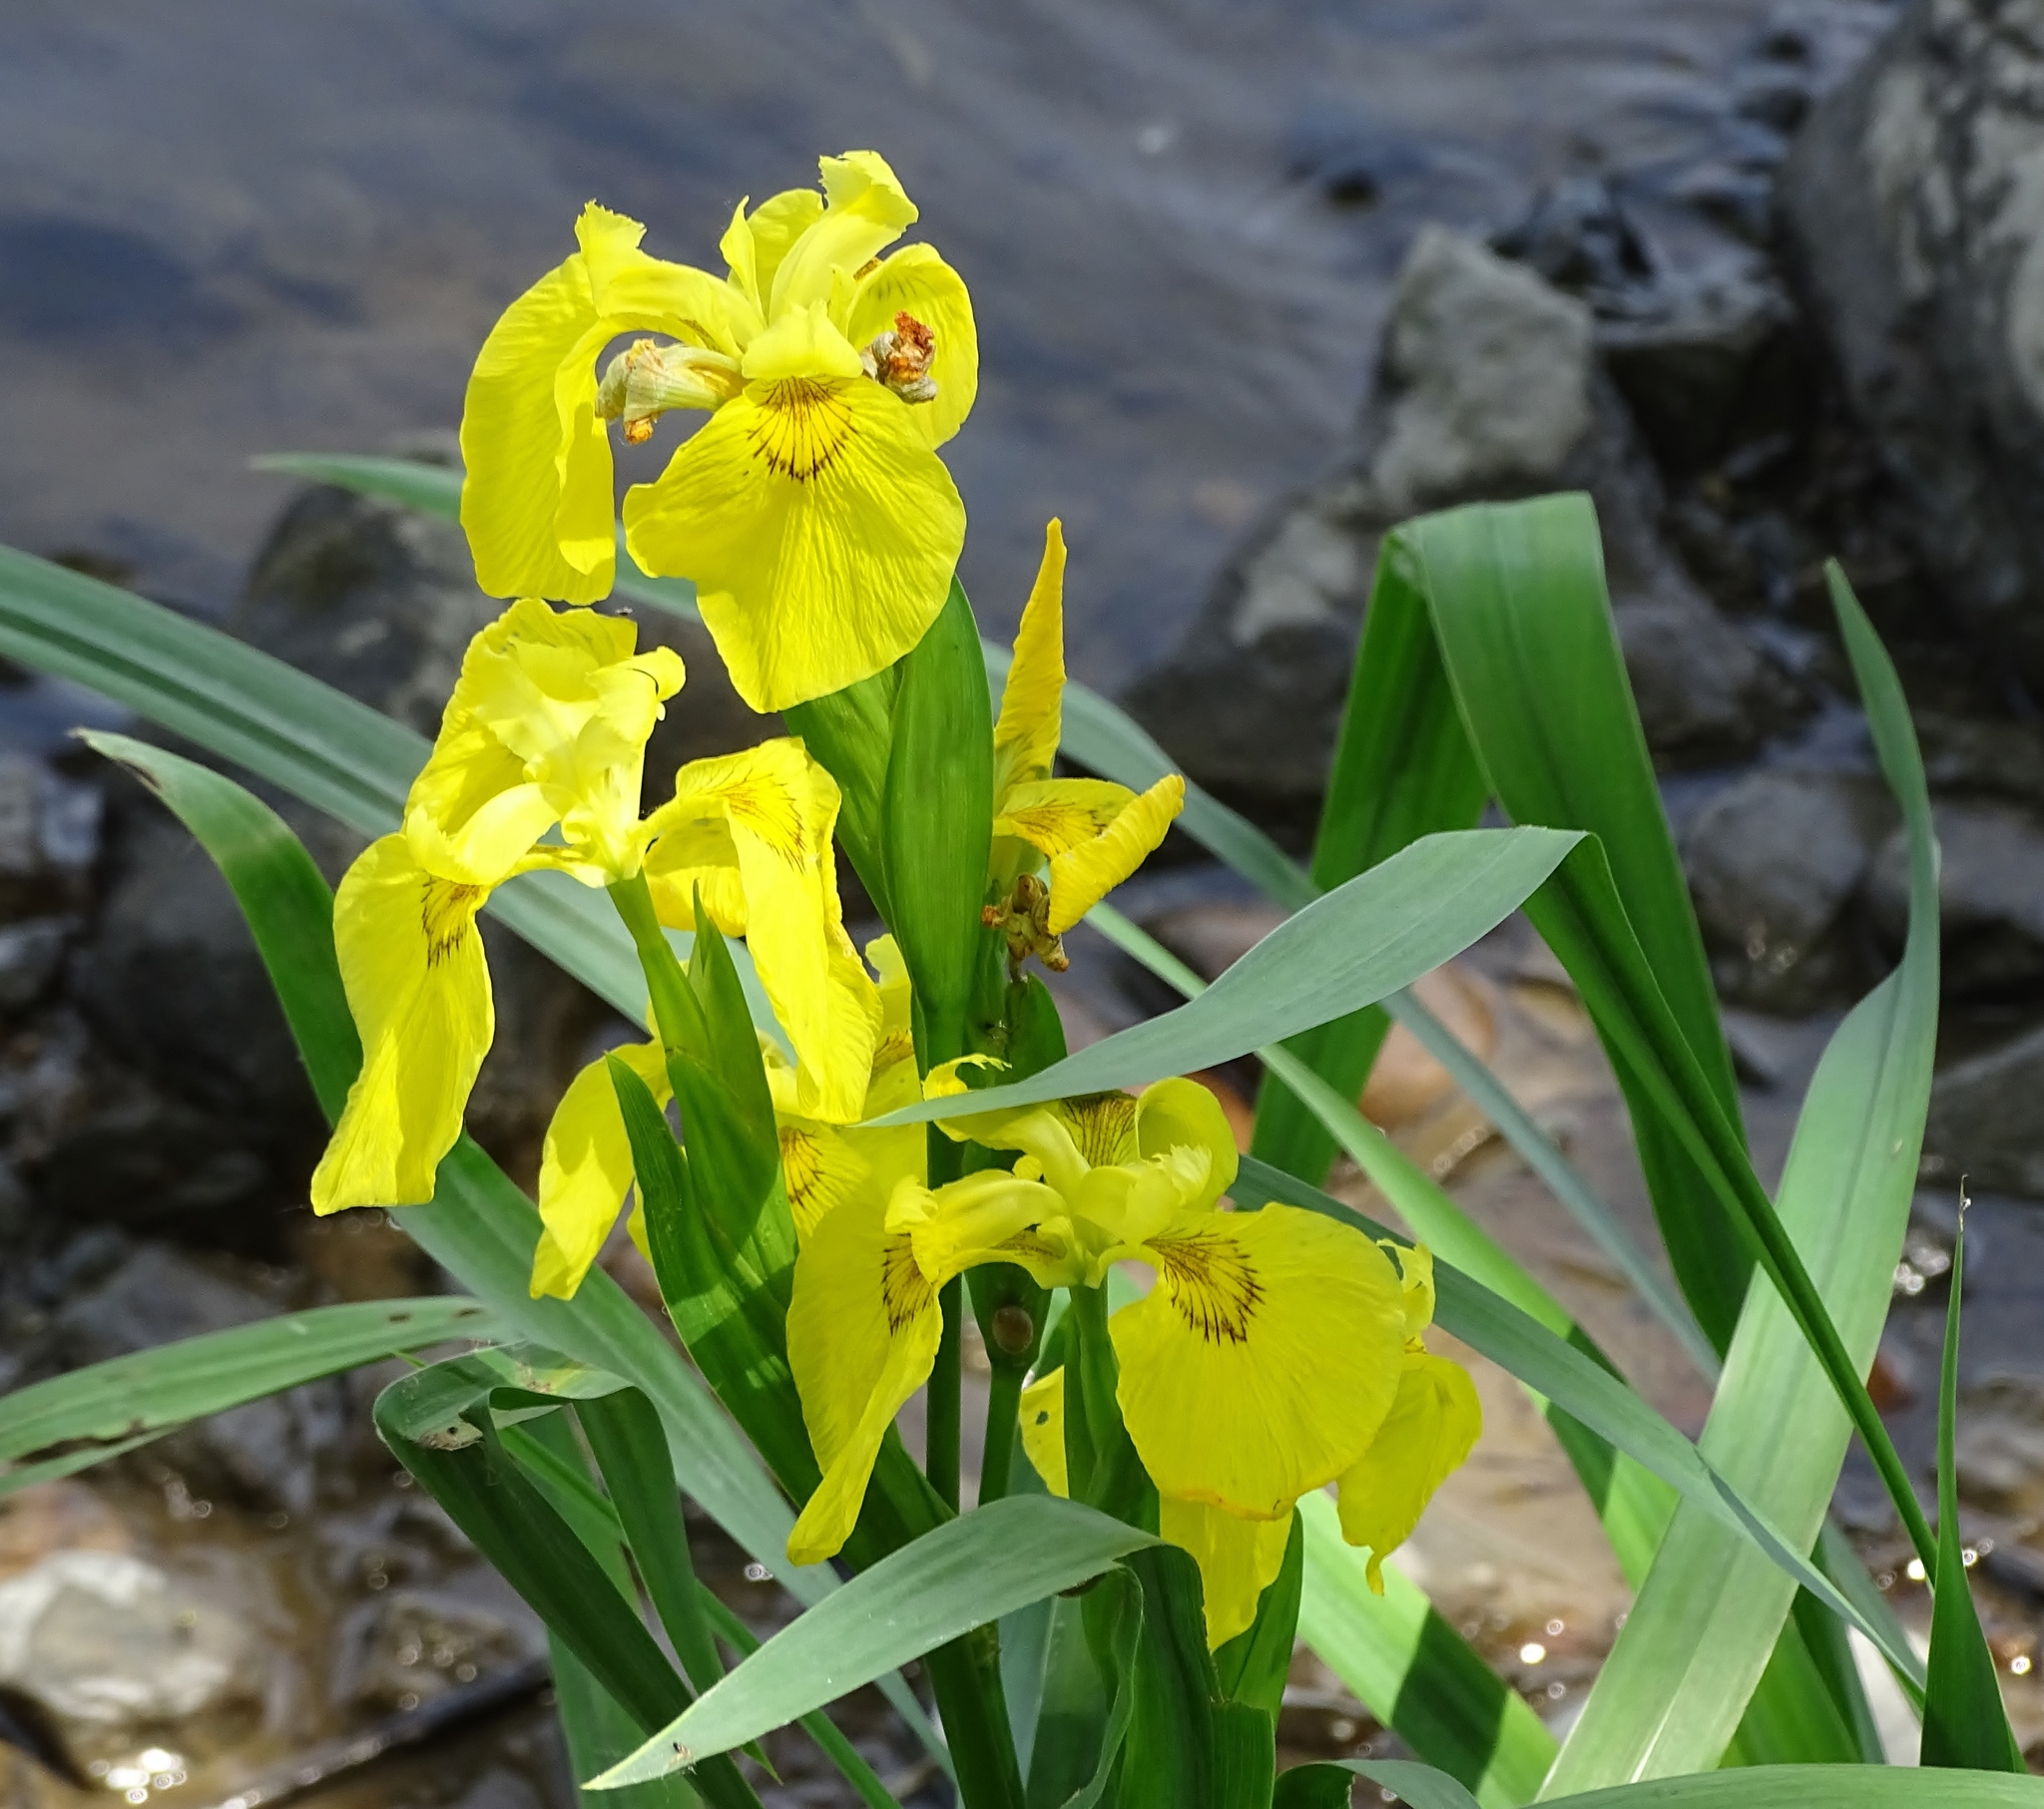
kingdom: Plantae
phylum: Tracheophyta
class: Liliopsida
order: Asparagales
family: Iridaceae
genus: Iris
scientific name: Iris pseudacorus
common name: Yellow flag
